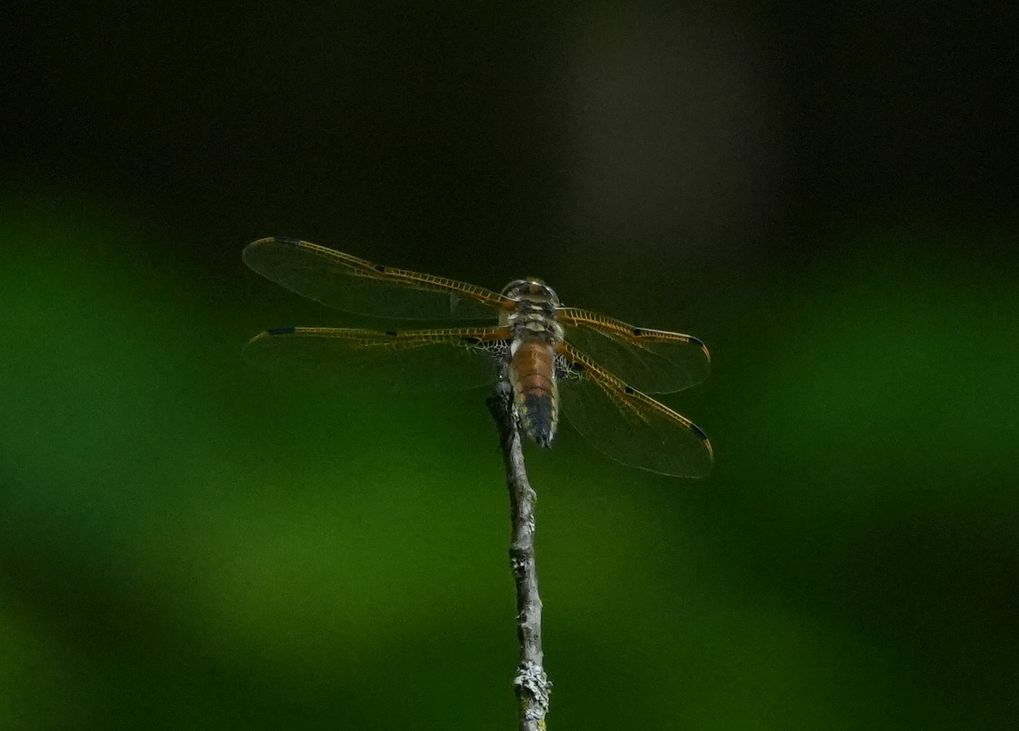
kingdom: Animalia
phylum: Arthropoda
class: Insecta
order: Odonata
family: Libellulidae
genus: Libellula
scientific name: Libellula quadrimaculata
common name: Four-spotted chaser
